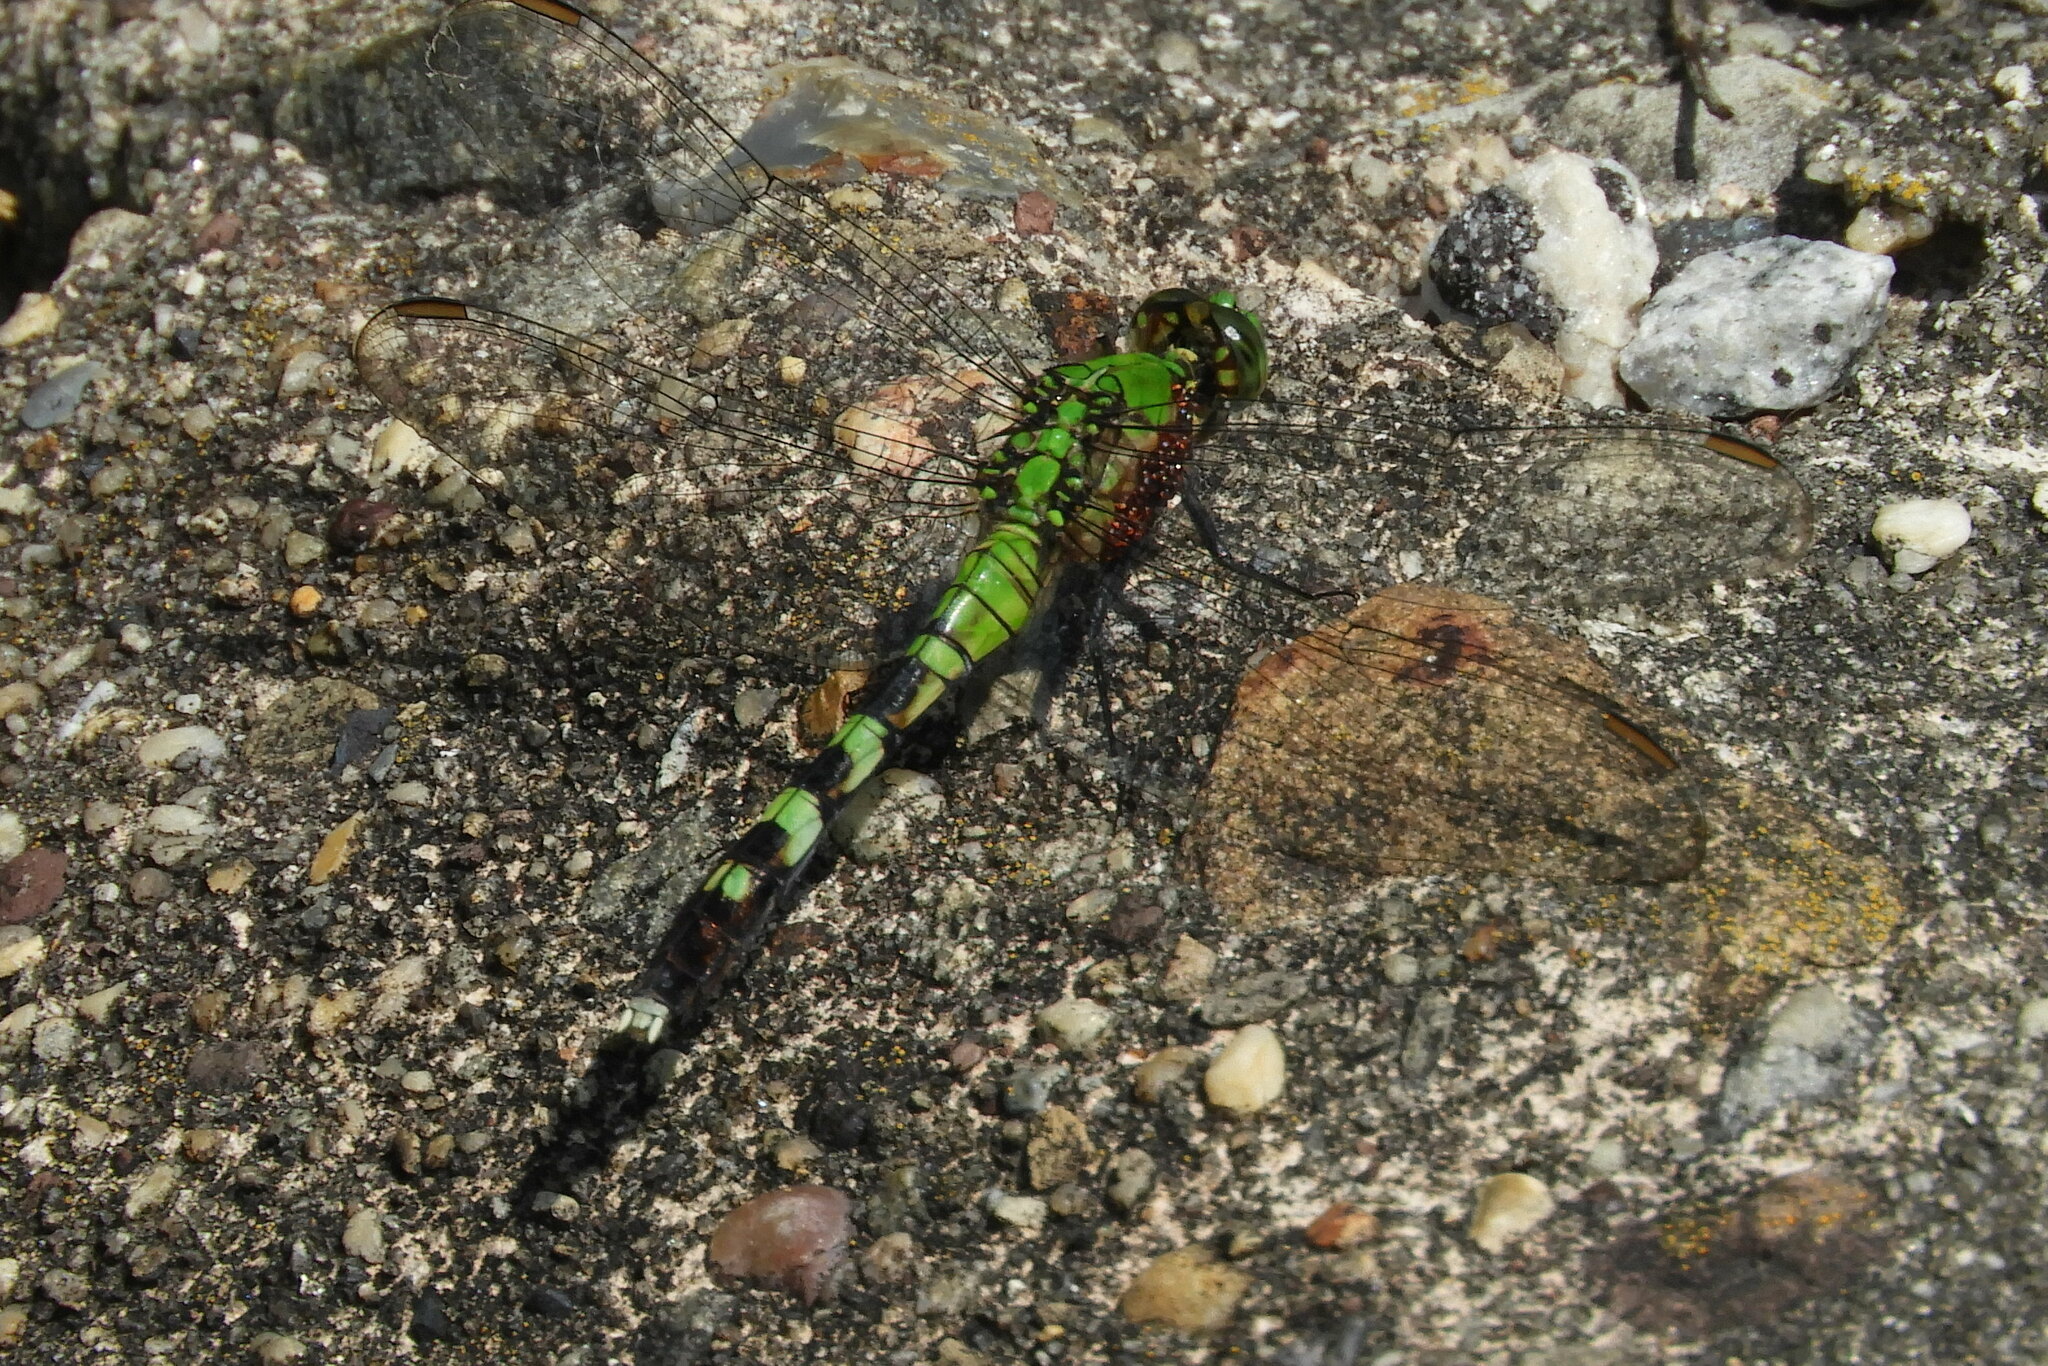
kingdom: Animalia
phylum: Arthropoda
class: Insecta
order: Odonata
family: Libellulidae
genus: Erythemis
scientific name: Erythemis simplicicollis
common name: Eastern pondhawk
